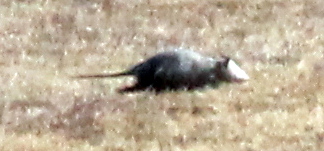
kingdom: Animalia
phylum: Chordata
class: Mammalia
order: Didelphimorphia
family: Didelphidae
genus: Didelphis
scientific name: Didelphis virginiana
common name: Virginia opossum
